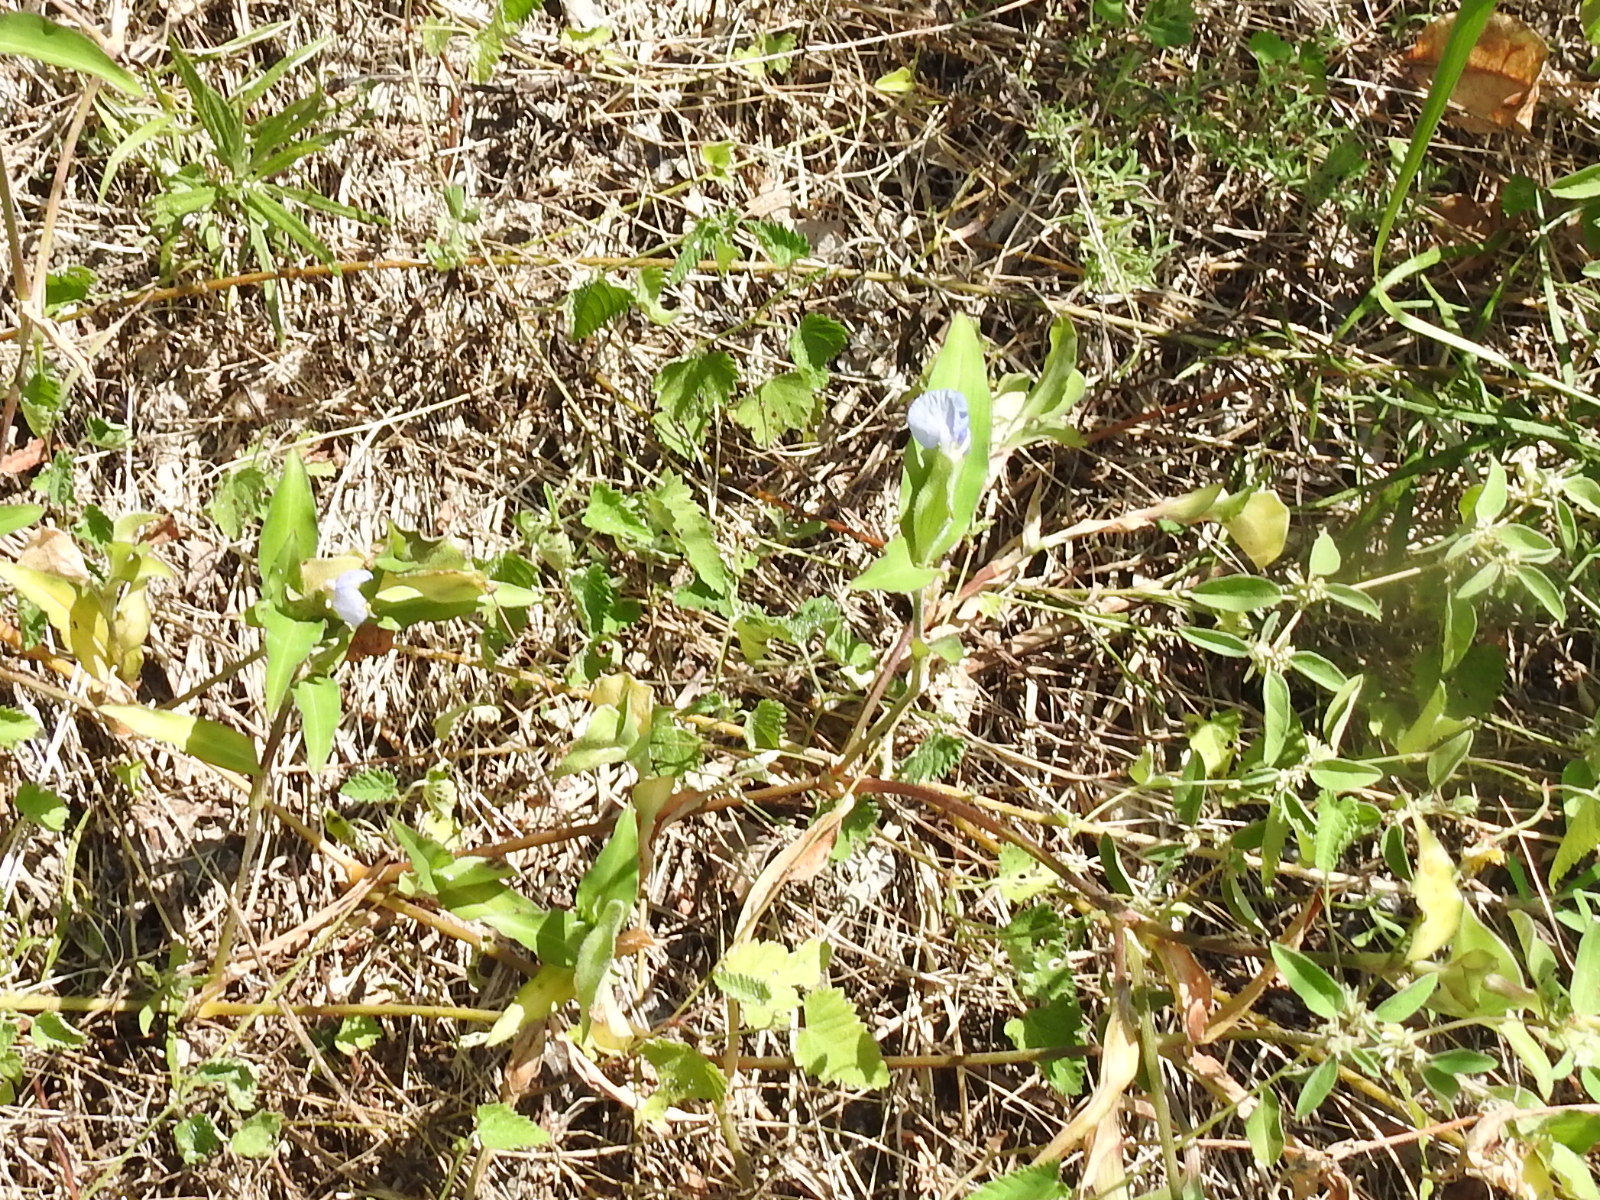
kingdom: Plantae
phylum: Tracheophyta
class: Liliopsida
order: Commelinales
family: Commelinaceae
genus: Commelina
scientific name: Commelina erecta
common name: Blousel blommetjie
